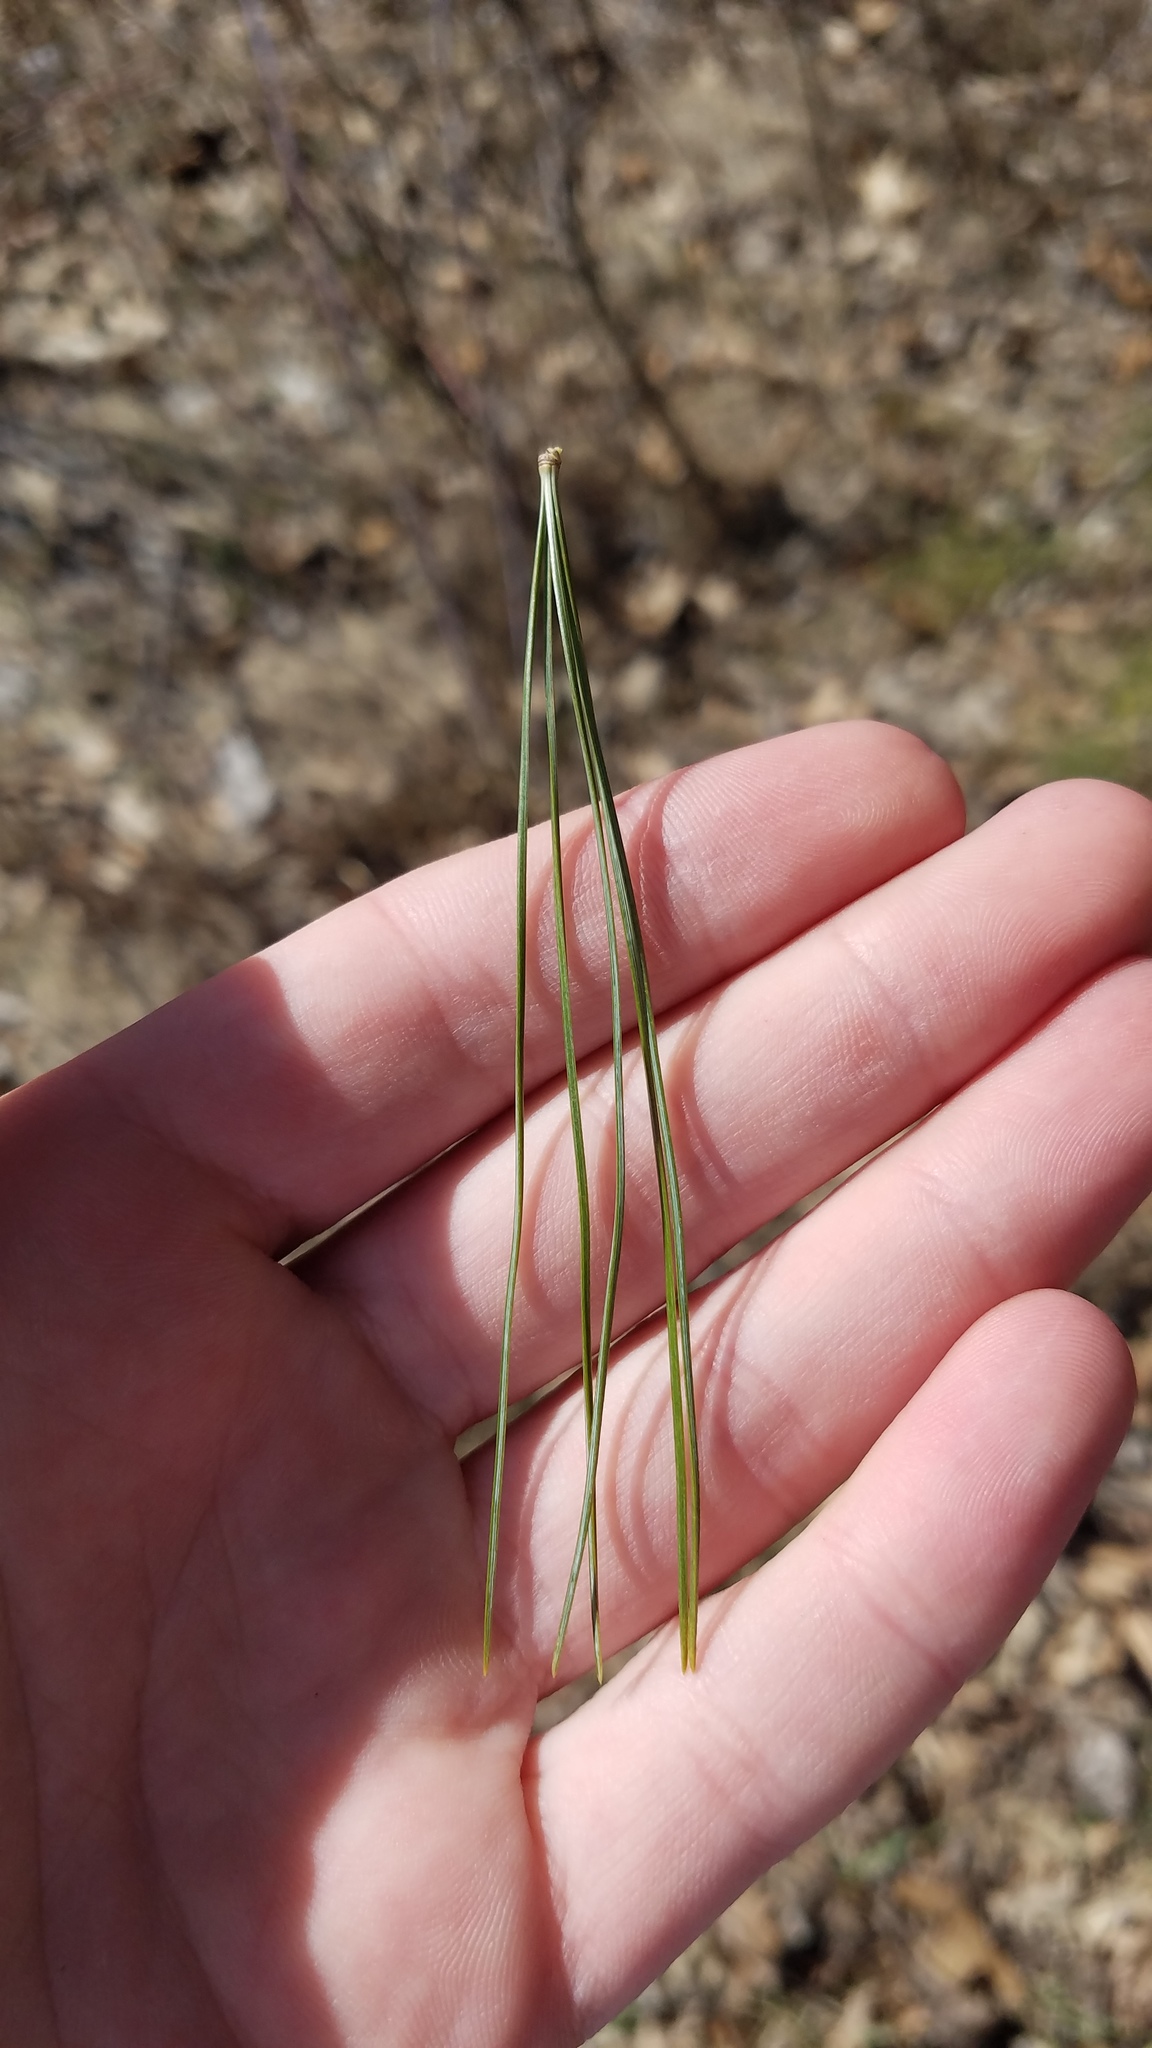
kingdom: Plantae
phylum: Tracheophyta
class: Pinopsida
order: Pinales
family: Pinaceae
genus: Pinus
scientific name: Pinus strobus
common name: Weymouth pine
